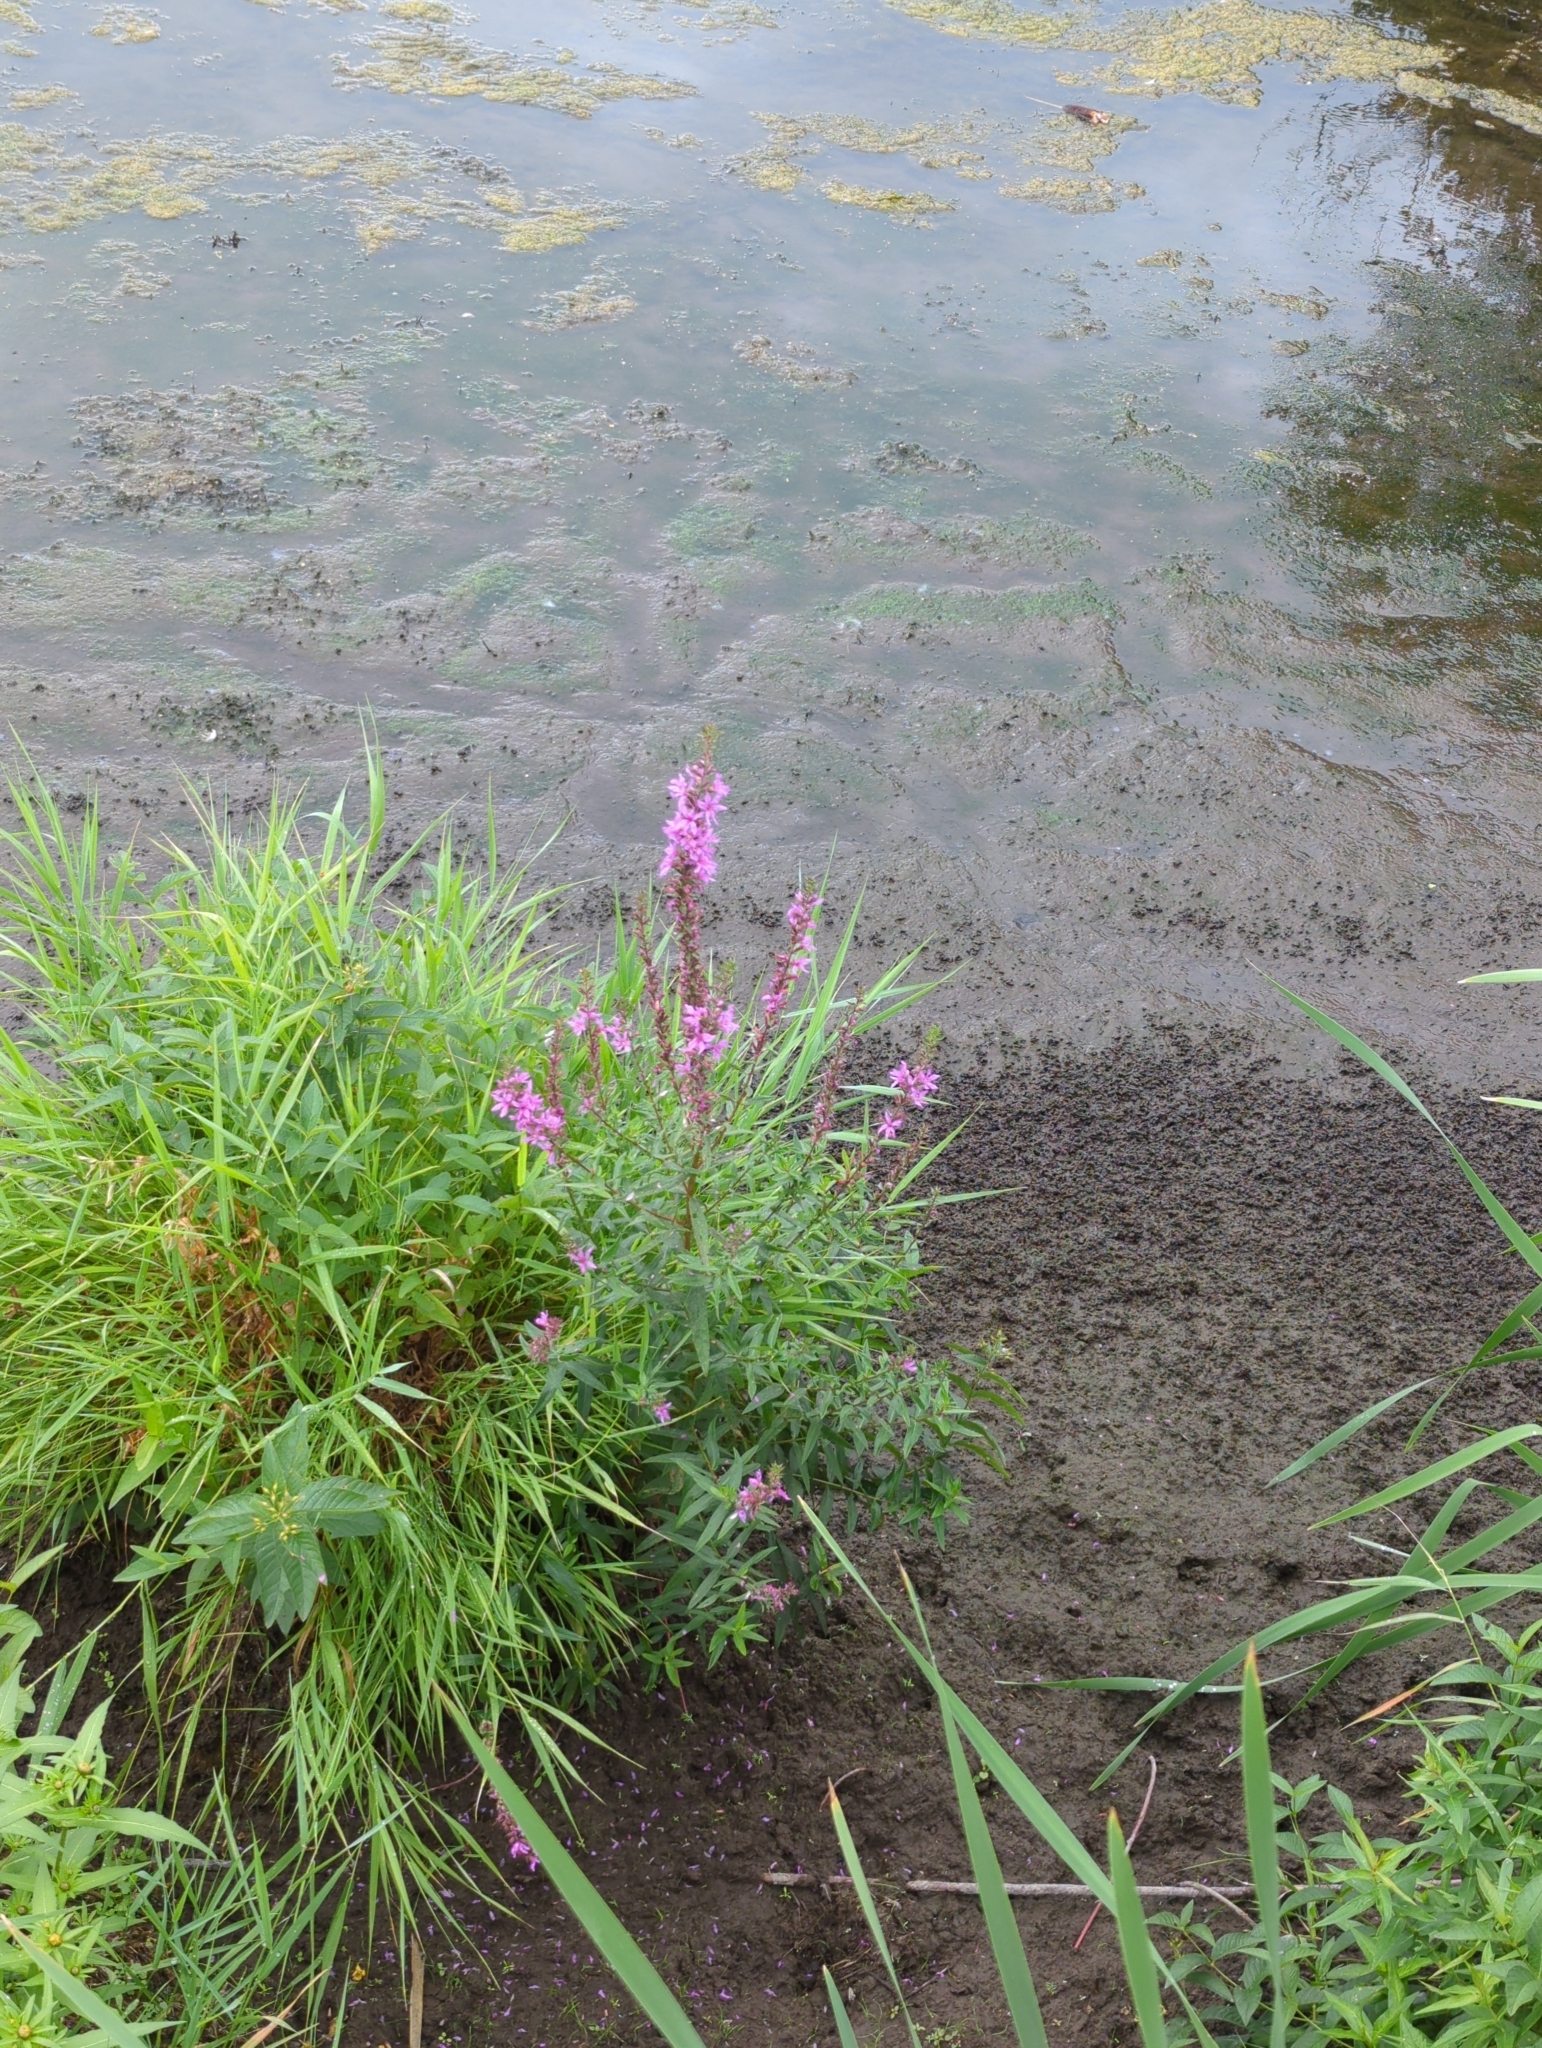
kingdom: Plantae
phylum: Tracheophyta
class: Magnoliopsida
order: Myrtales
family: Lythraceae
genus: Lythrum
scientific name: Lythrum salicaria
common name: Purple loosestrife
